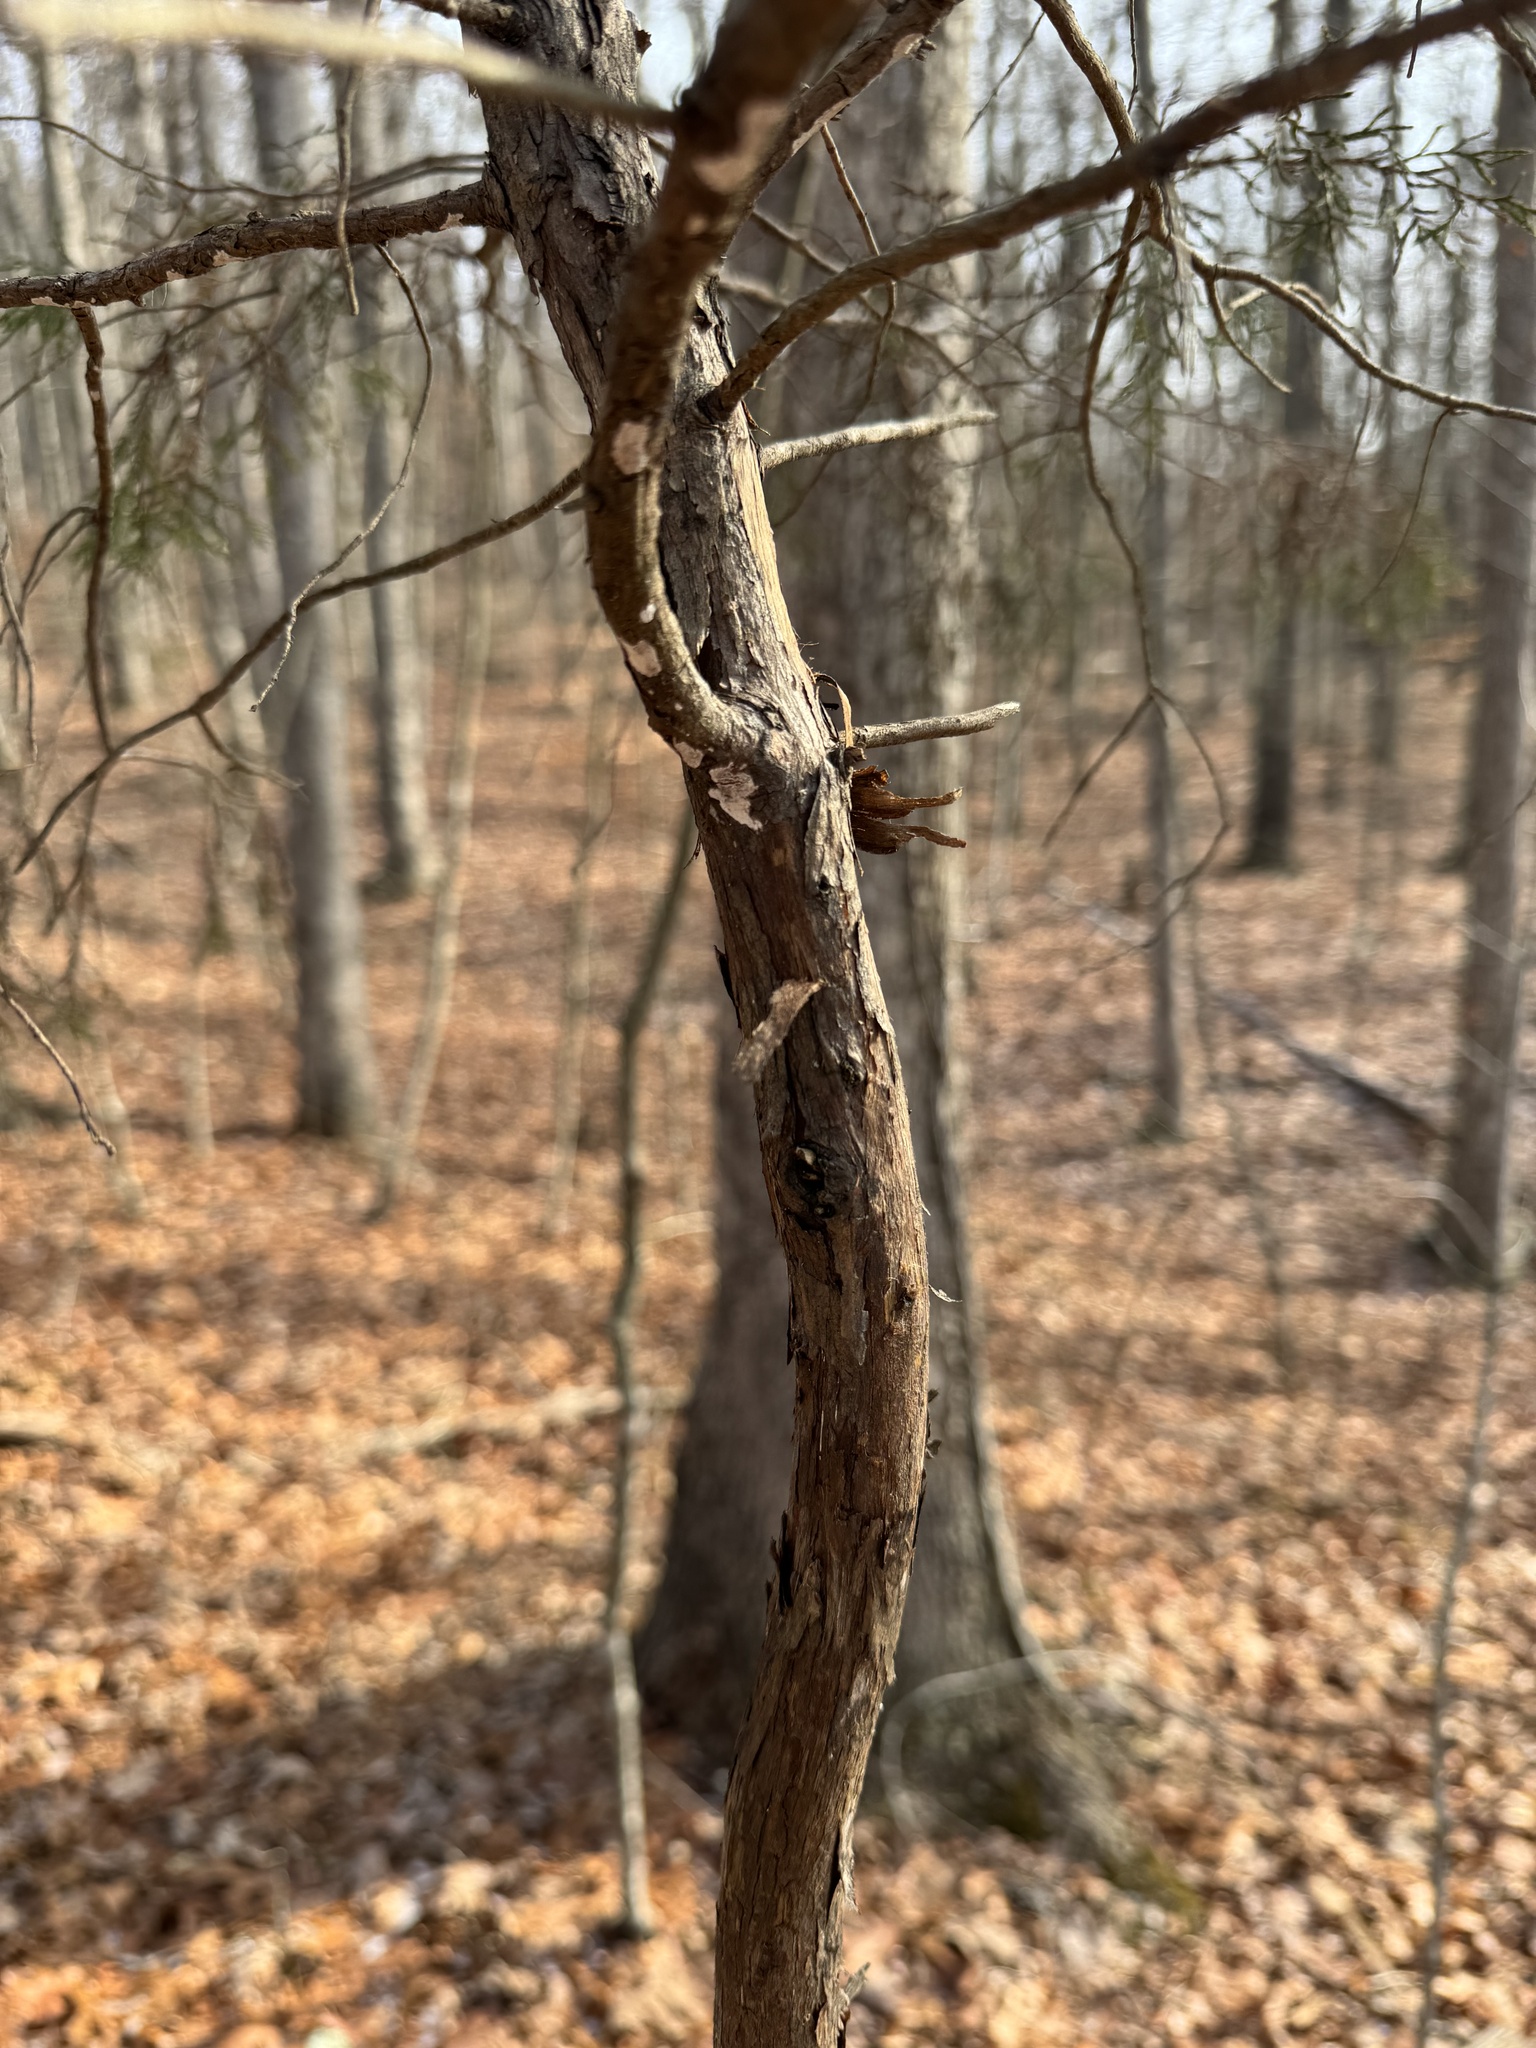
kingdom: Plantae
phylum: Tracheophyta
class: Pinopsida
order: Pinales
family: Cupressaceae
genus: Juniperus
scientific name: Juniperus virginiana
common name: Red juniper
